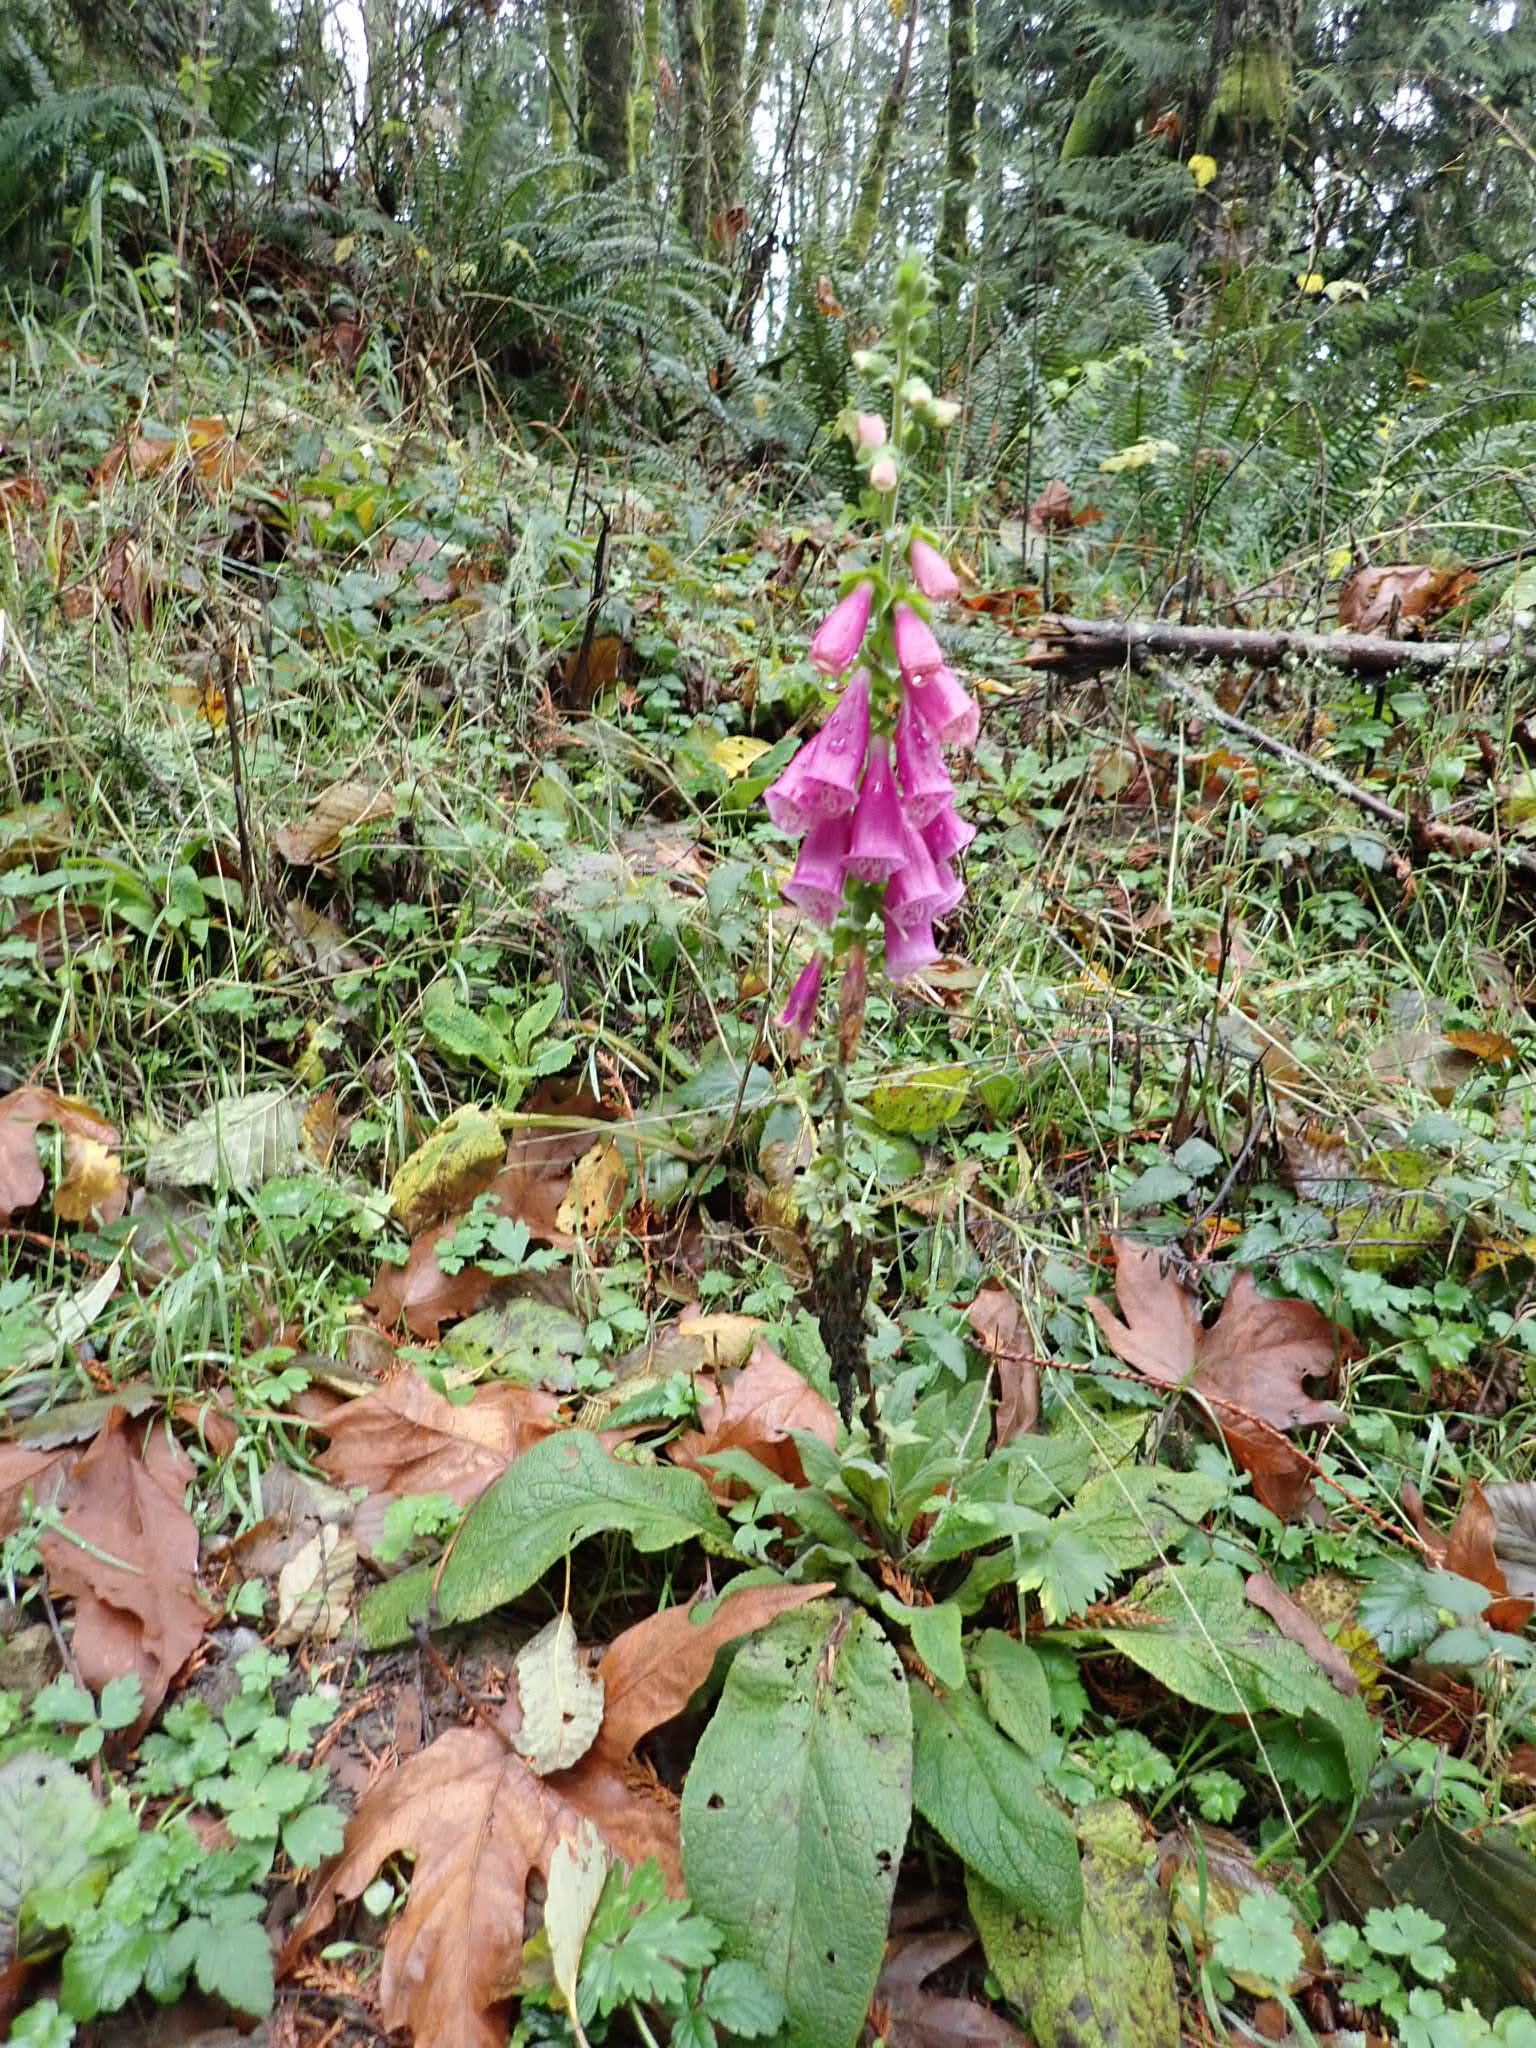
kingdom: Plantae
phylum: Tracheophyta
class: Magnoliopsida
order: Lamiales
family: Plantaginaceae
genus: Digitalis
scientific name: Digitalis purpurea
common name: Foxglove
